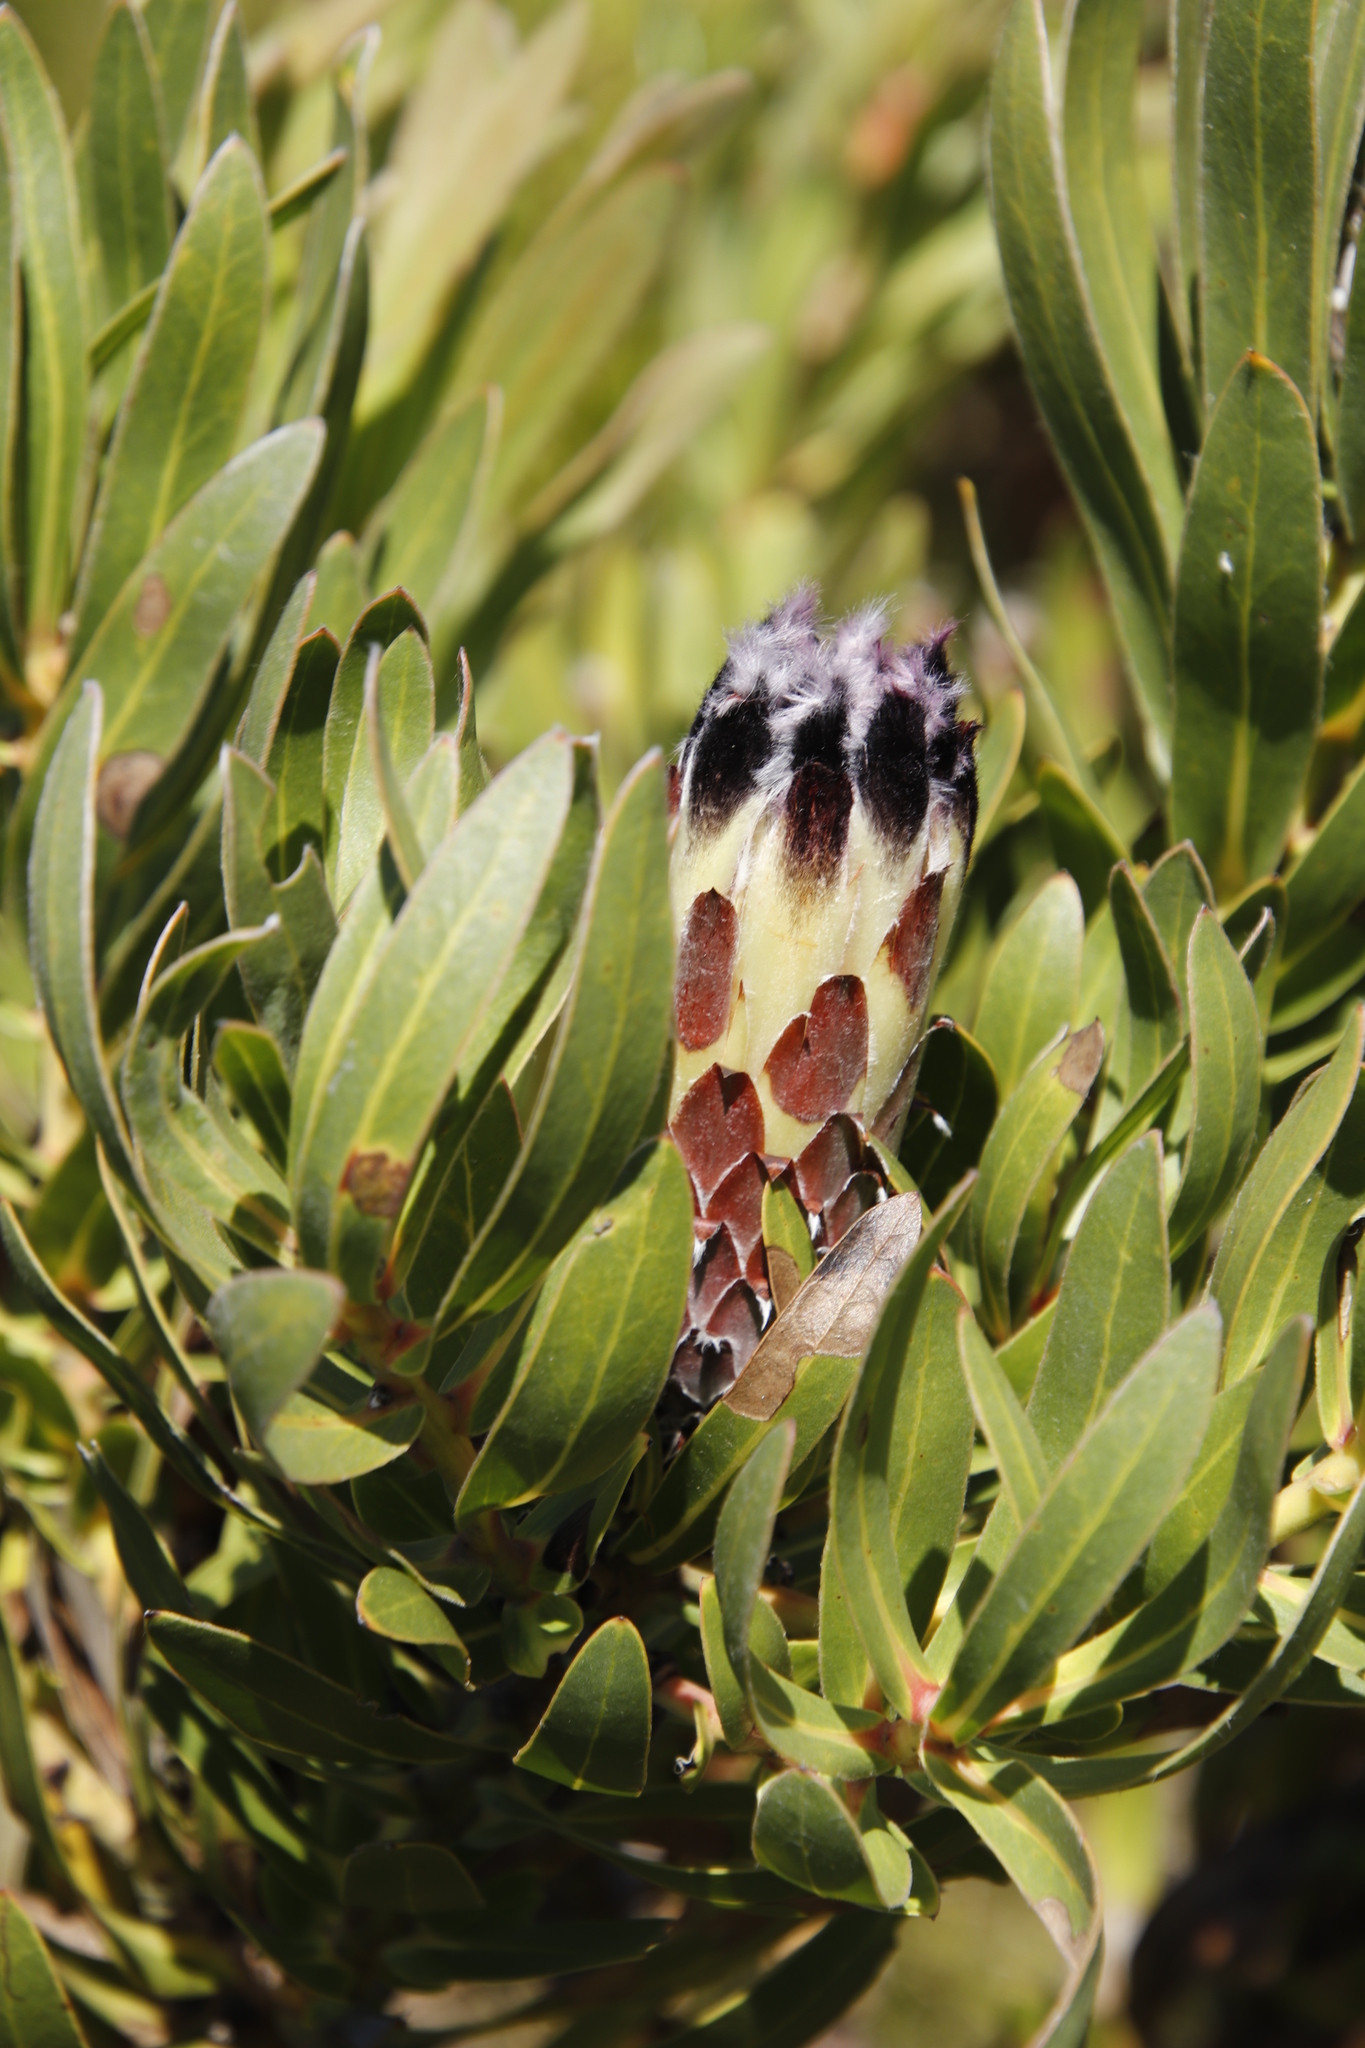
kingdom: Plantae
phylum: Tracheophyta
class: Magnoliopsida
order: Proteales
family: Proteaceae
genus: Protea
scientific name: Protea lepidocarpodendron
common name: Black-bearded protea
